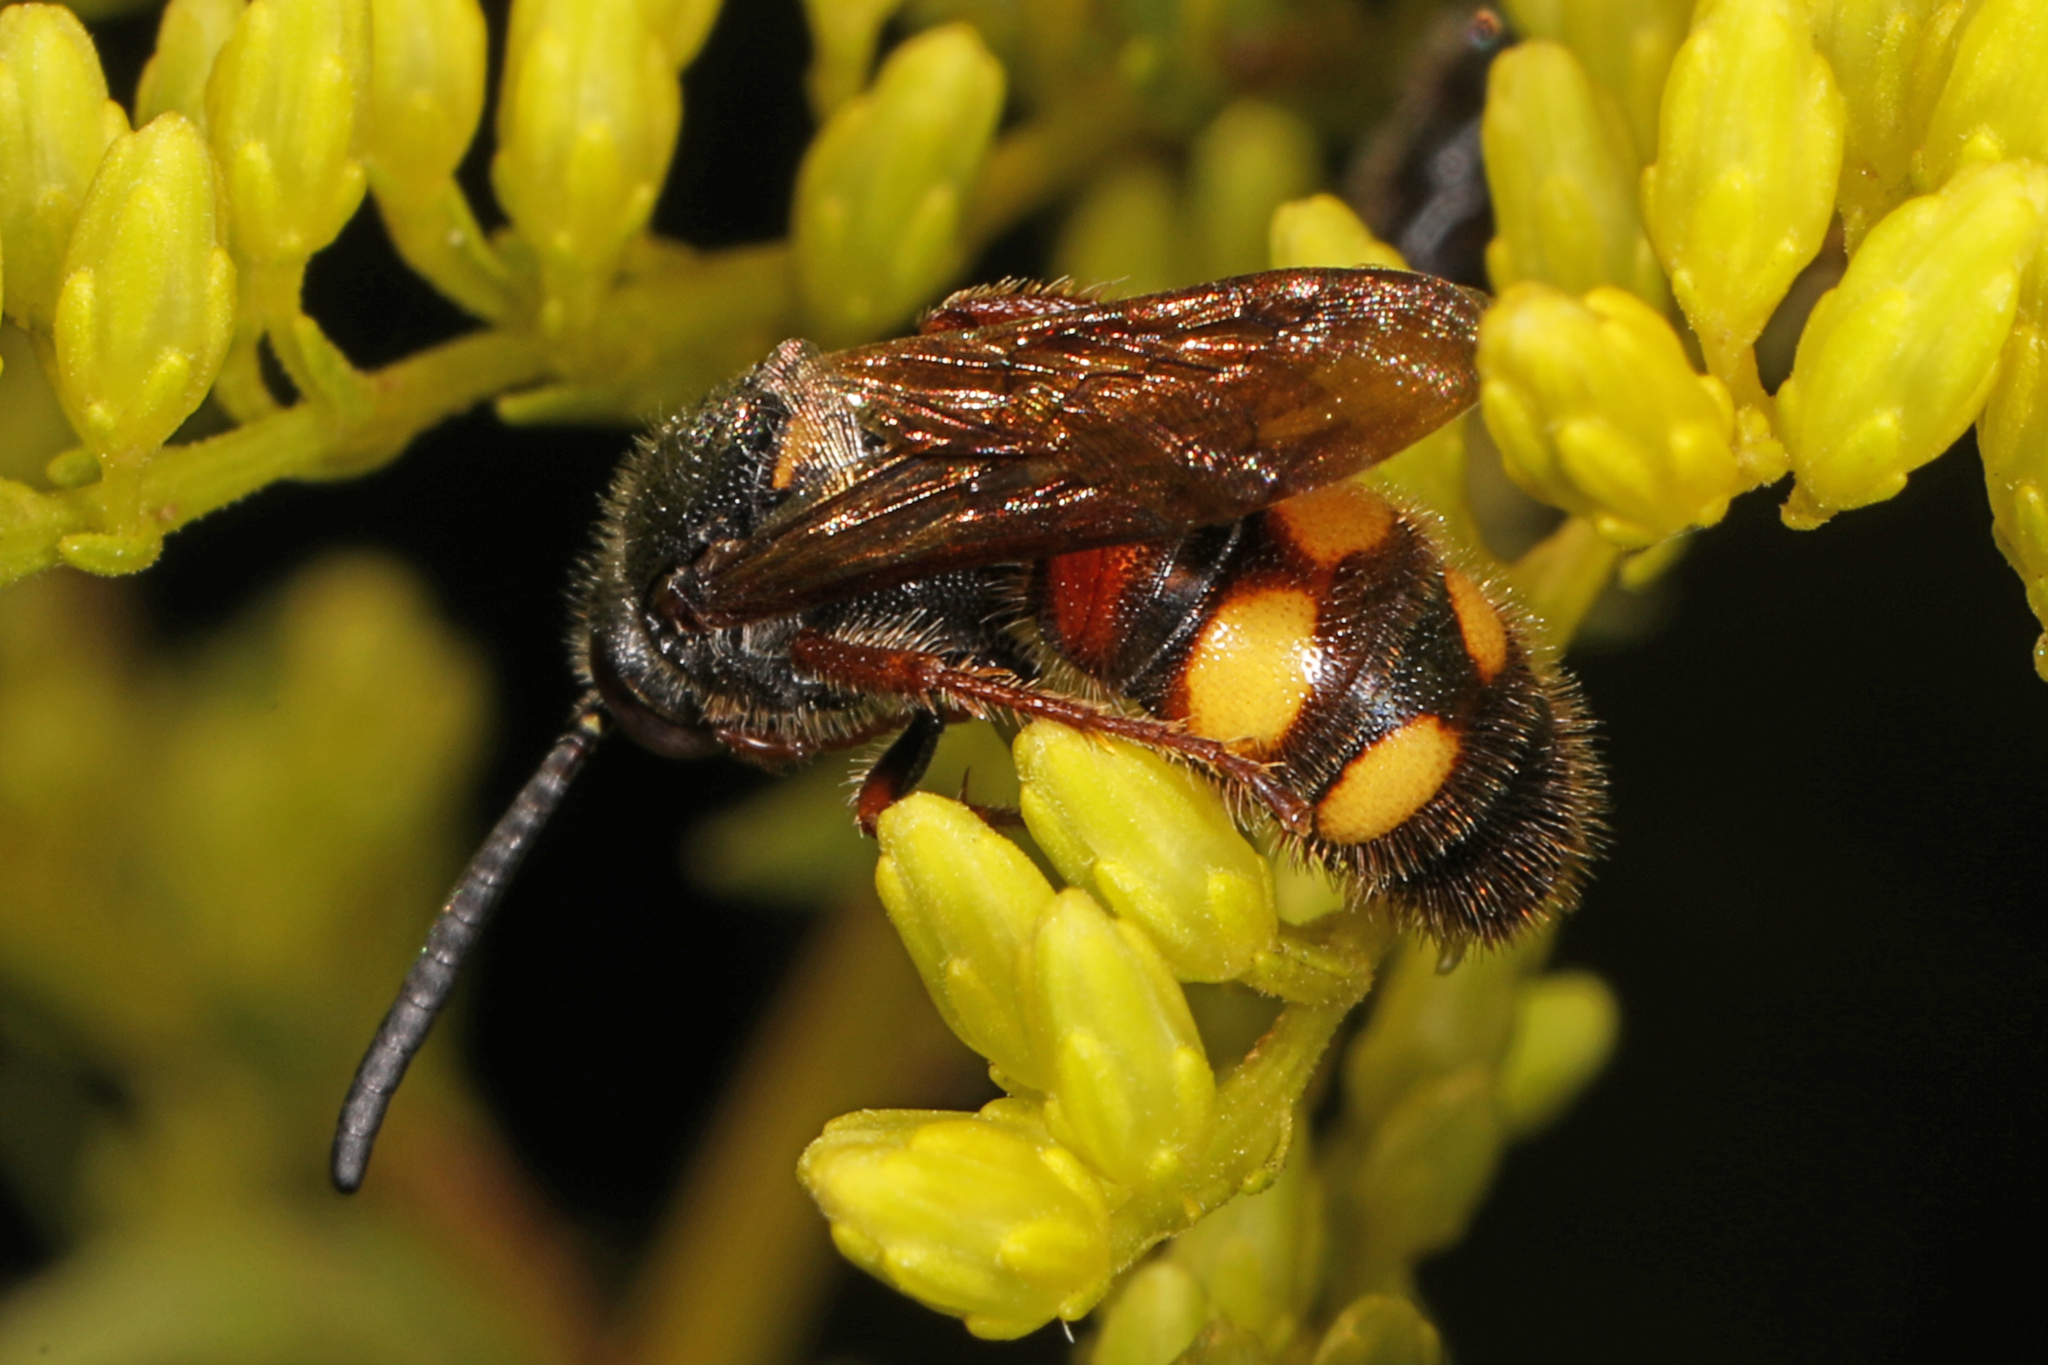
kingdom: Animalia
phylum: Arthropoda
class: Insecta
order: Hymenoptera
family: Scoliidae
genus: Scolia
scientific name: Scolia nobilitata
